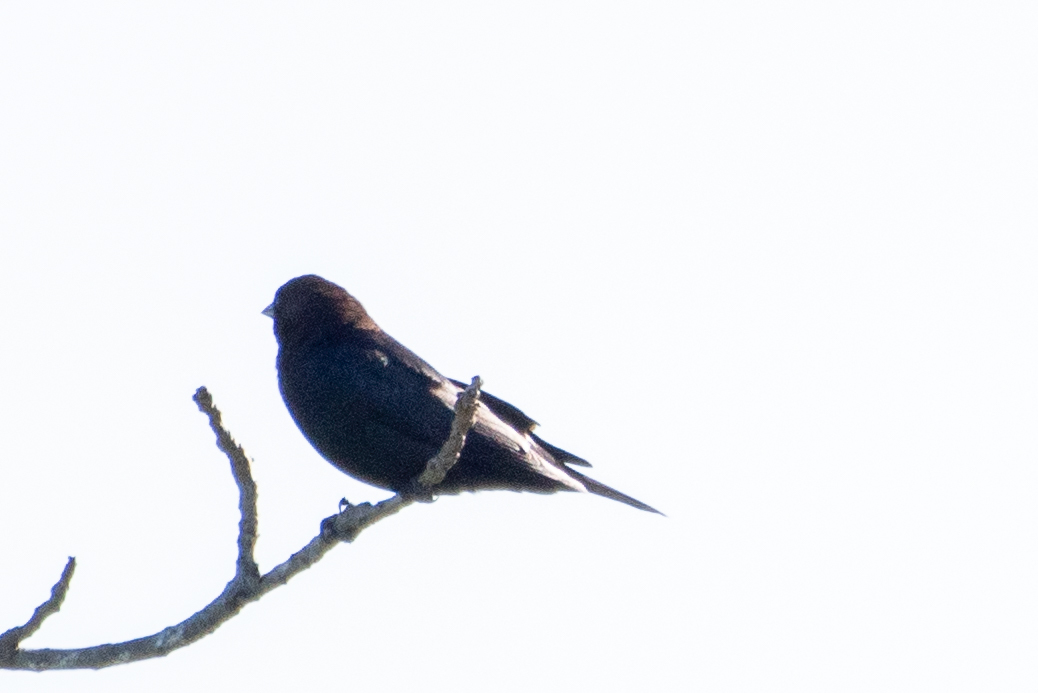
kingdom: Animalia
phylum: Chordata
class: Aves
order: Passeriformes
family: Icteridae
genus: Molothrus
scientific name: Molothrus ater
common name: Brown-headed cowbird
